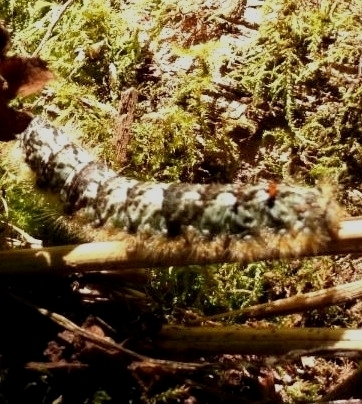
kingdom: Animalia
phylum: Arthropoda
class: Insecta
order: Lepidoptera
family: Lasiocampidae
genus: Phyllodesma
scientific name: Phyllodesma americana
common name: American lappet moth
